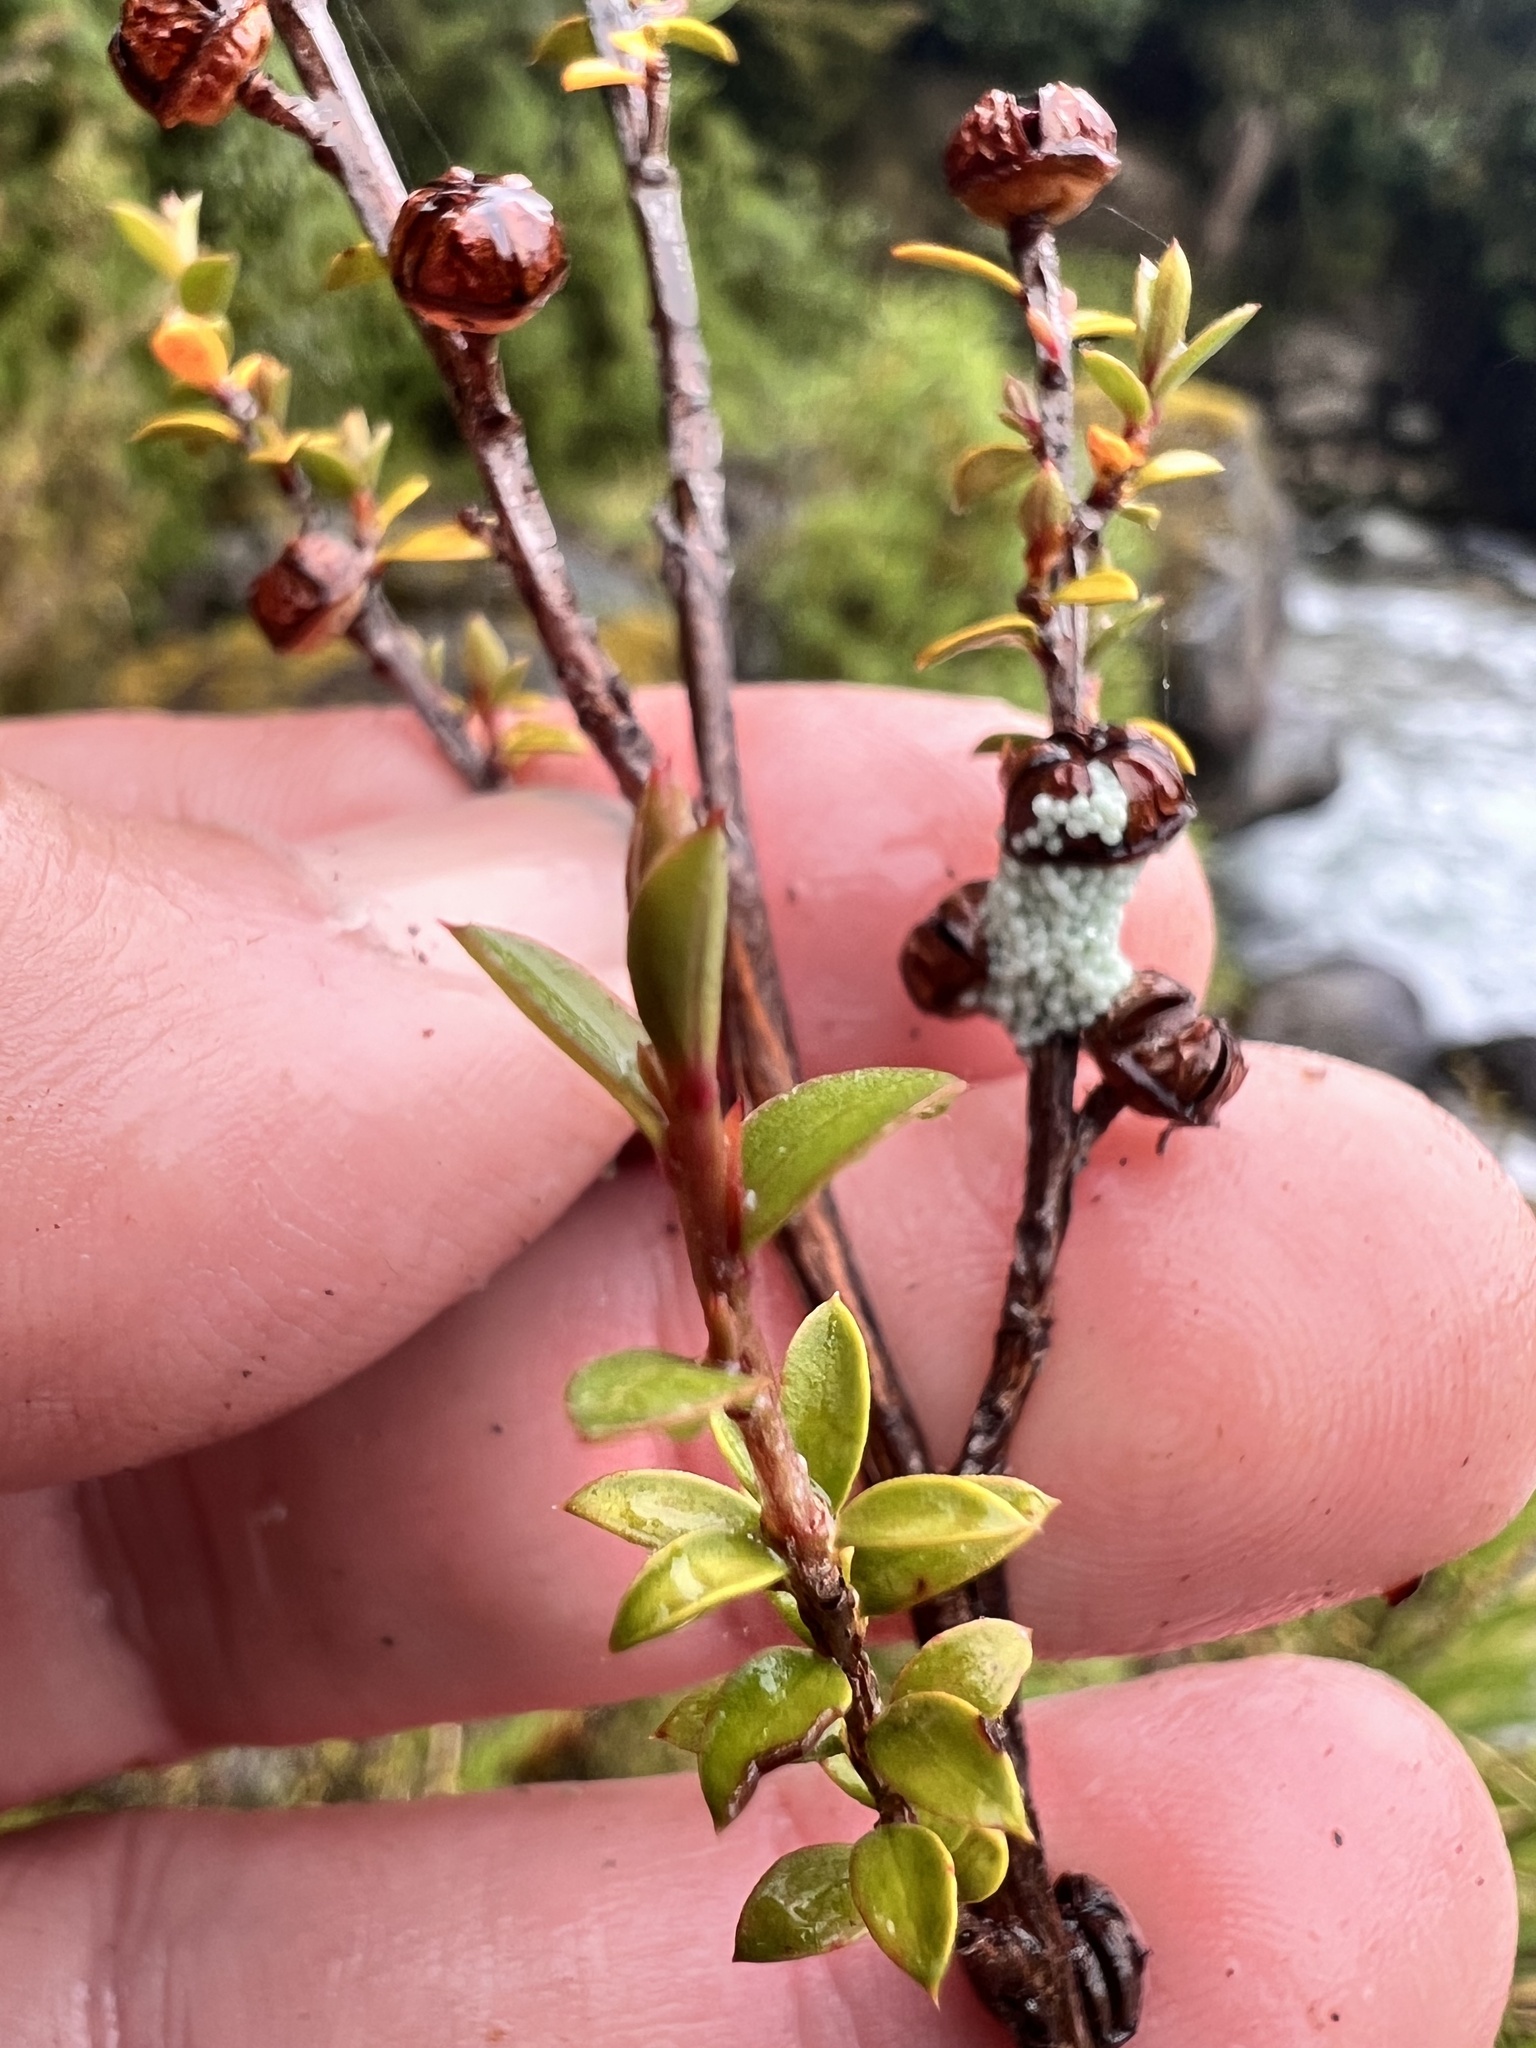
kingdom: Plantae
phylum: Tracheophyta
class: Magnoliopsida
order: Myrtales
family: Myrtaceae
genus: Leptospermum
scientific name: Leptospermum scoparium
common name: Broom tea-tree
